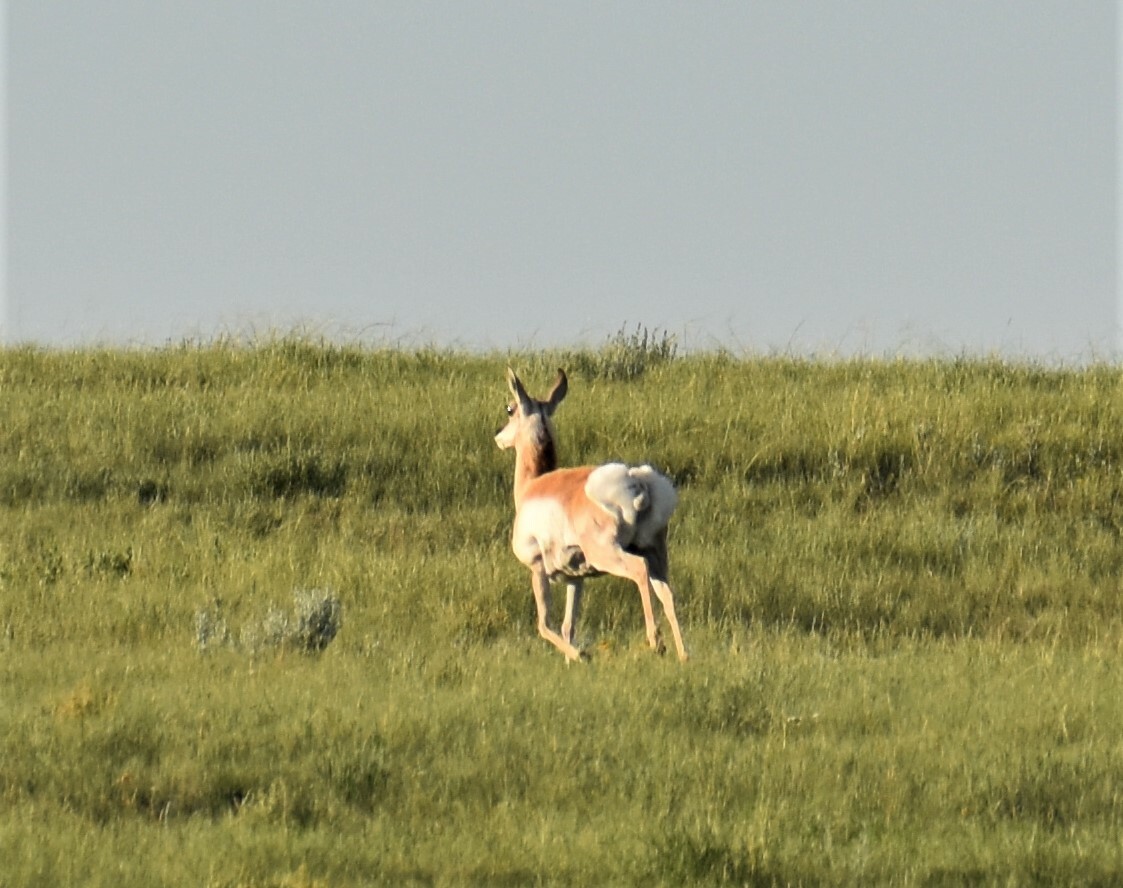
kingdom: Animalia
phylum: Chordata
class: Mammalia
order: Artiodactyla
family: Antilocapridae
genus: Antilocapra
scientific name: Antilocapra americana
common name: Pronghorn
